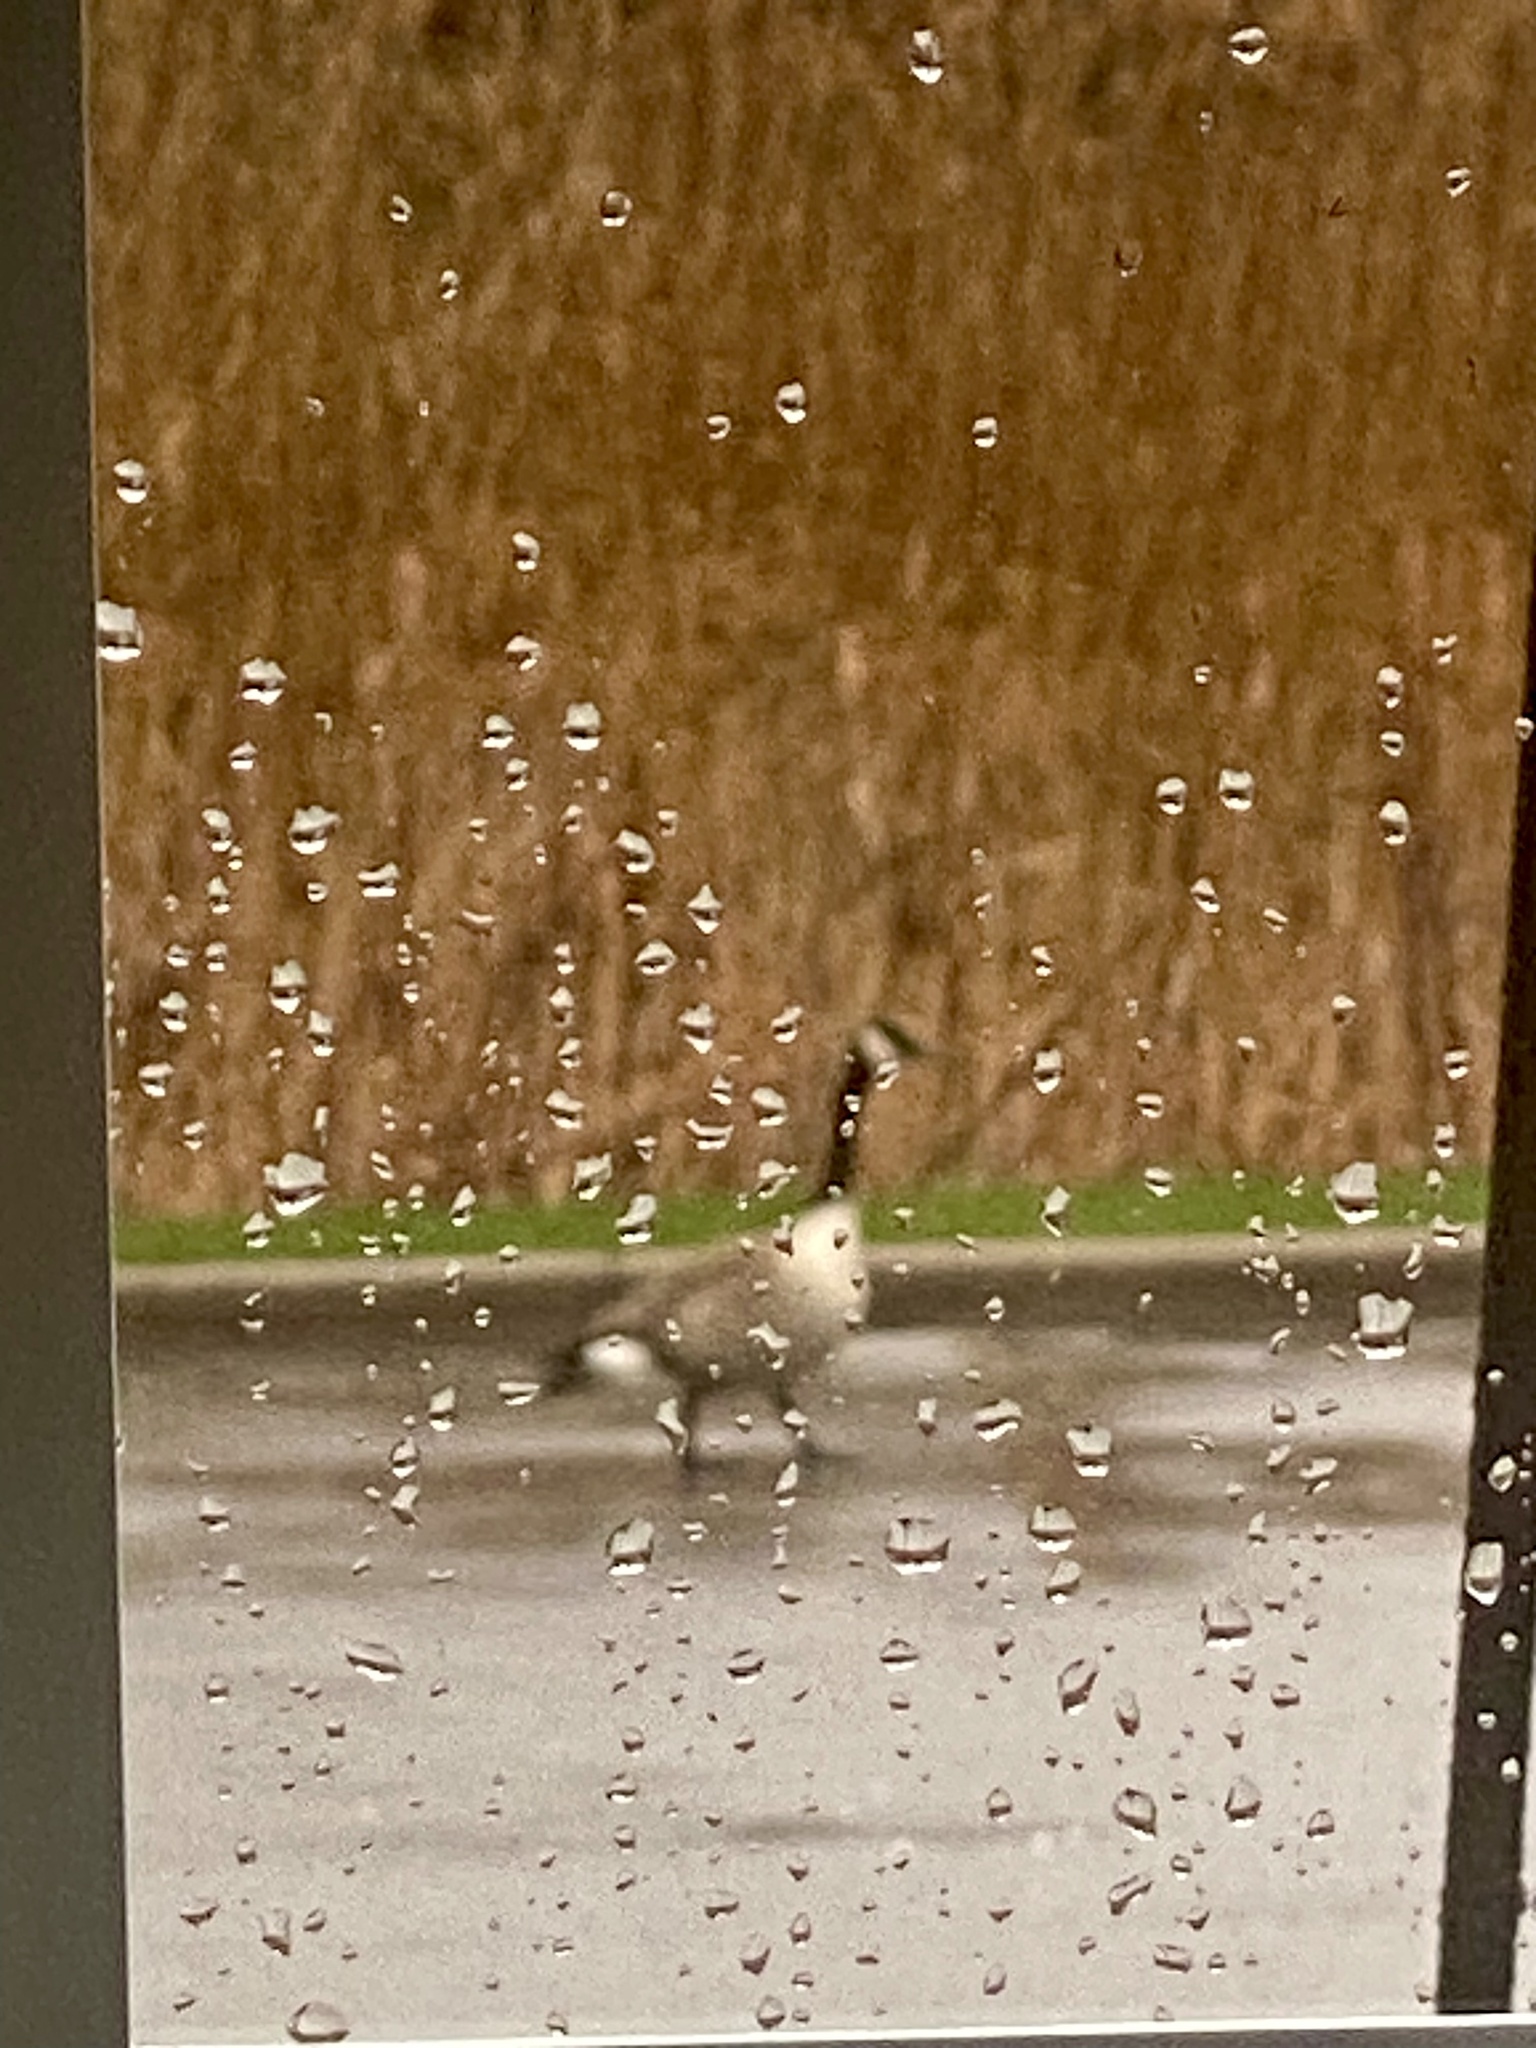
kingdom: Animalia
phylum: Chordata
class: Aves
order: Anseriformes
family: Anatidae
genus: Branta
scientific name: Branta canadensis
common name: Canada goose
